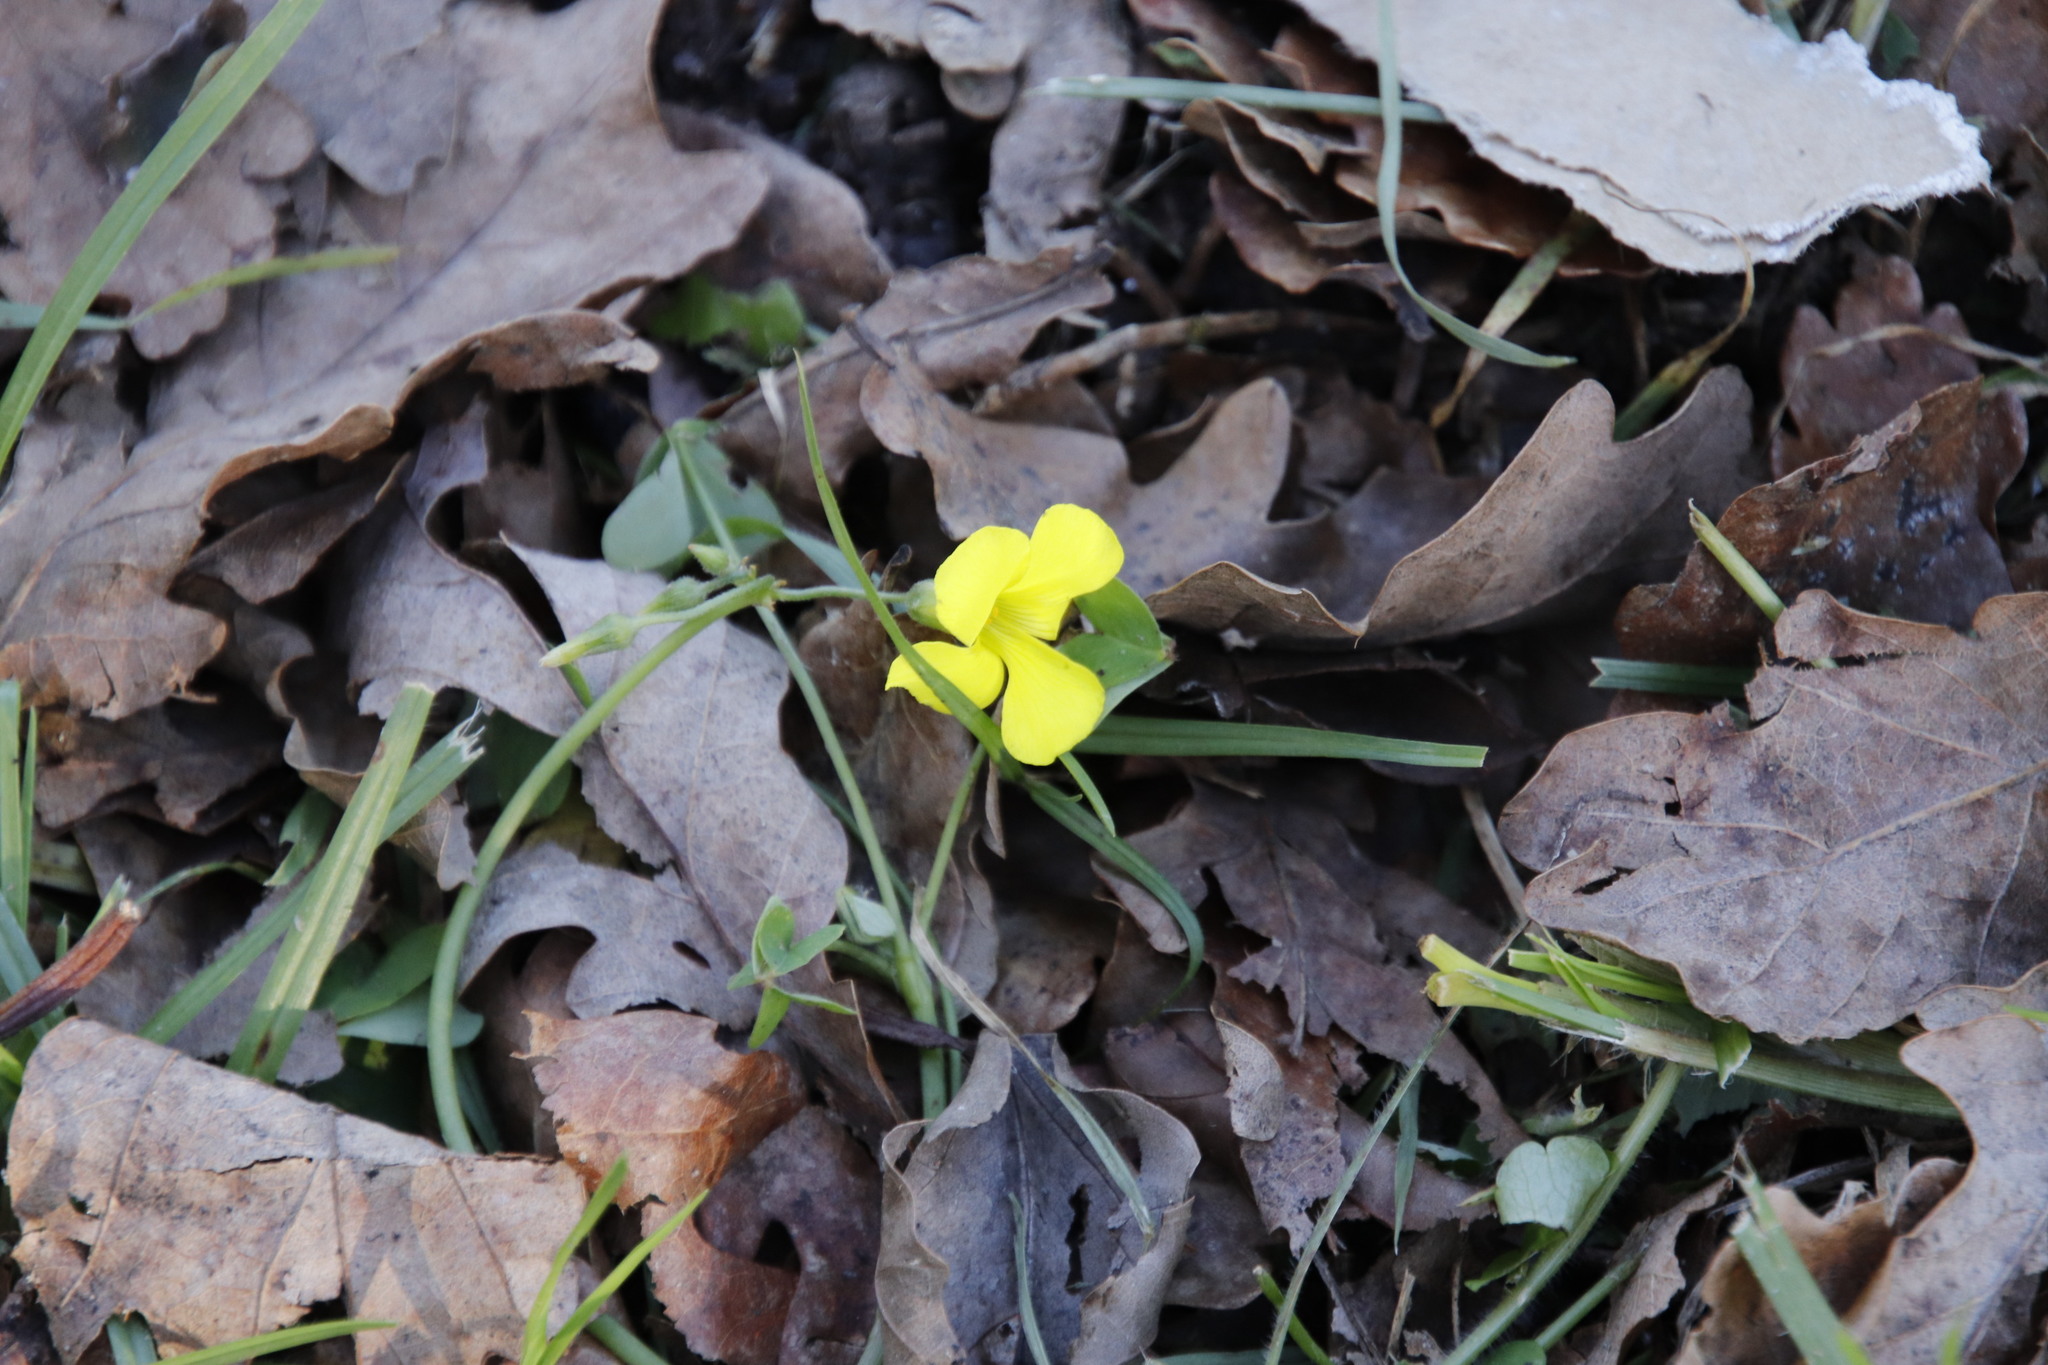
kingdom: Plantae
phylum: Tracheophyta
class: Magnoliopsida
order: Oxalidales
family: Oxalidaceae
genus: Oxalis
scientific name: Oxalis pes-caprae
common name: Bermuda-buttercup
